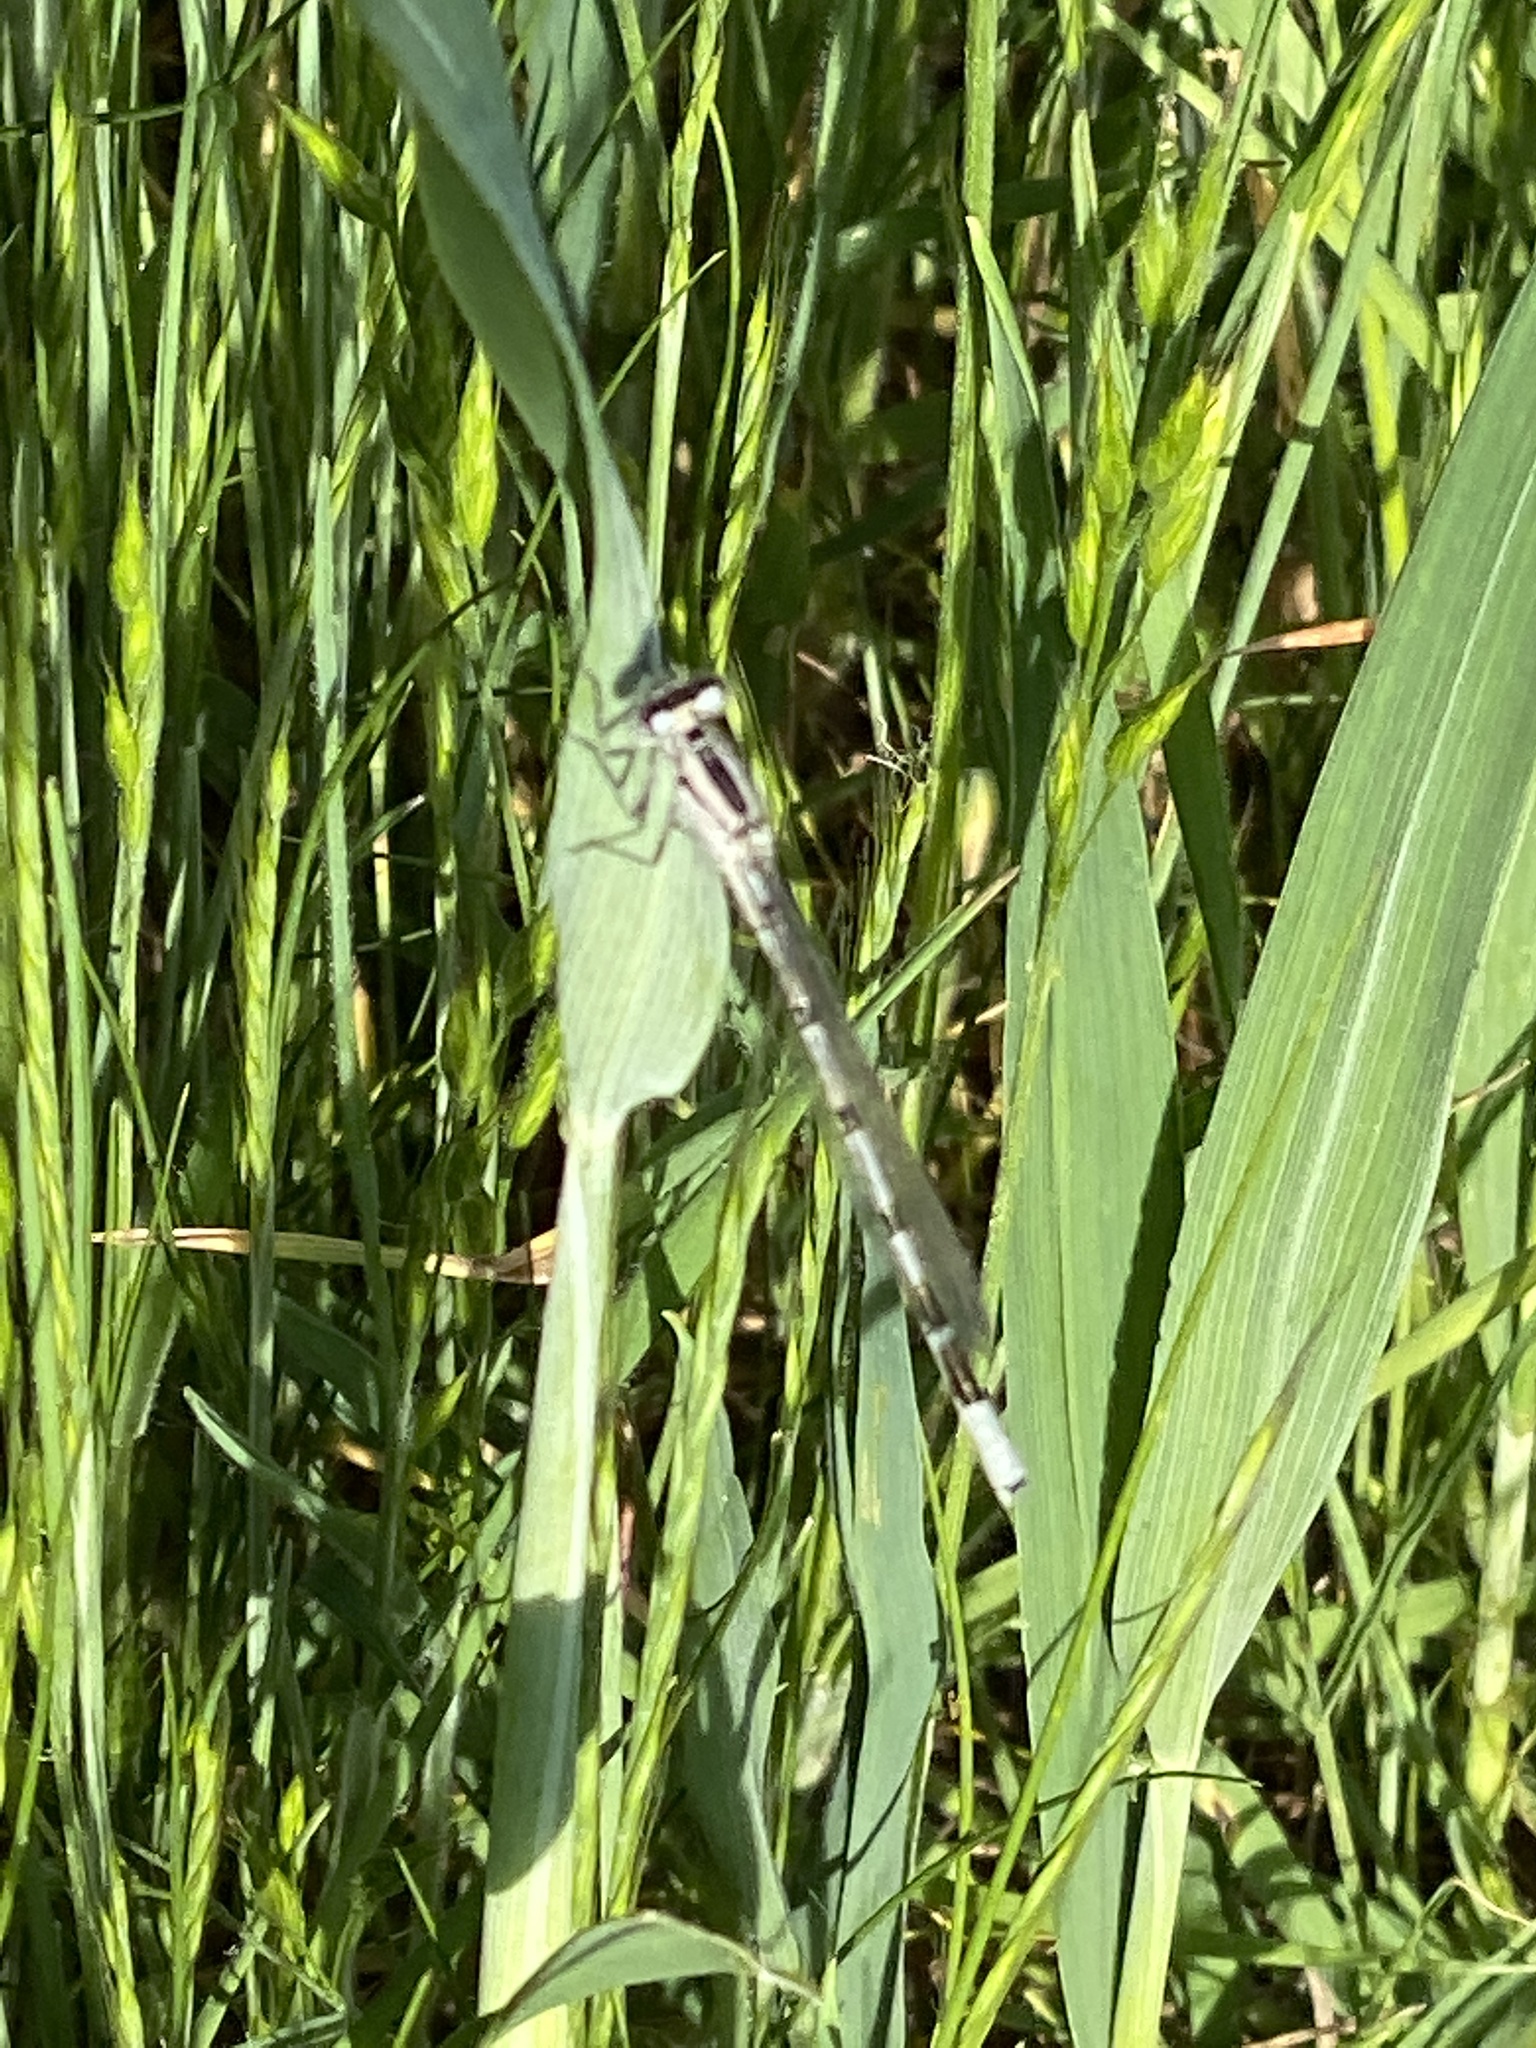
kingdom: Animalia
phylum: Arthropoda
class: Insecta
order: Odonata
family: Coenagrionidae
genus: Enallagma
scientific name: Enallagma cyathigerum
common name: Common blue damselfly
